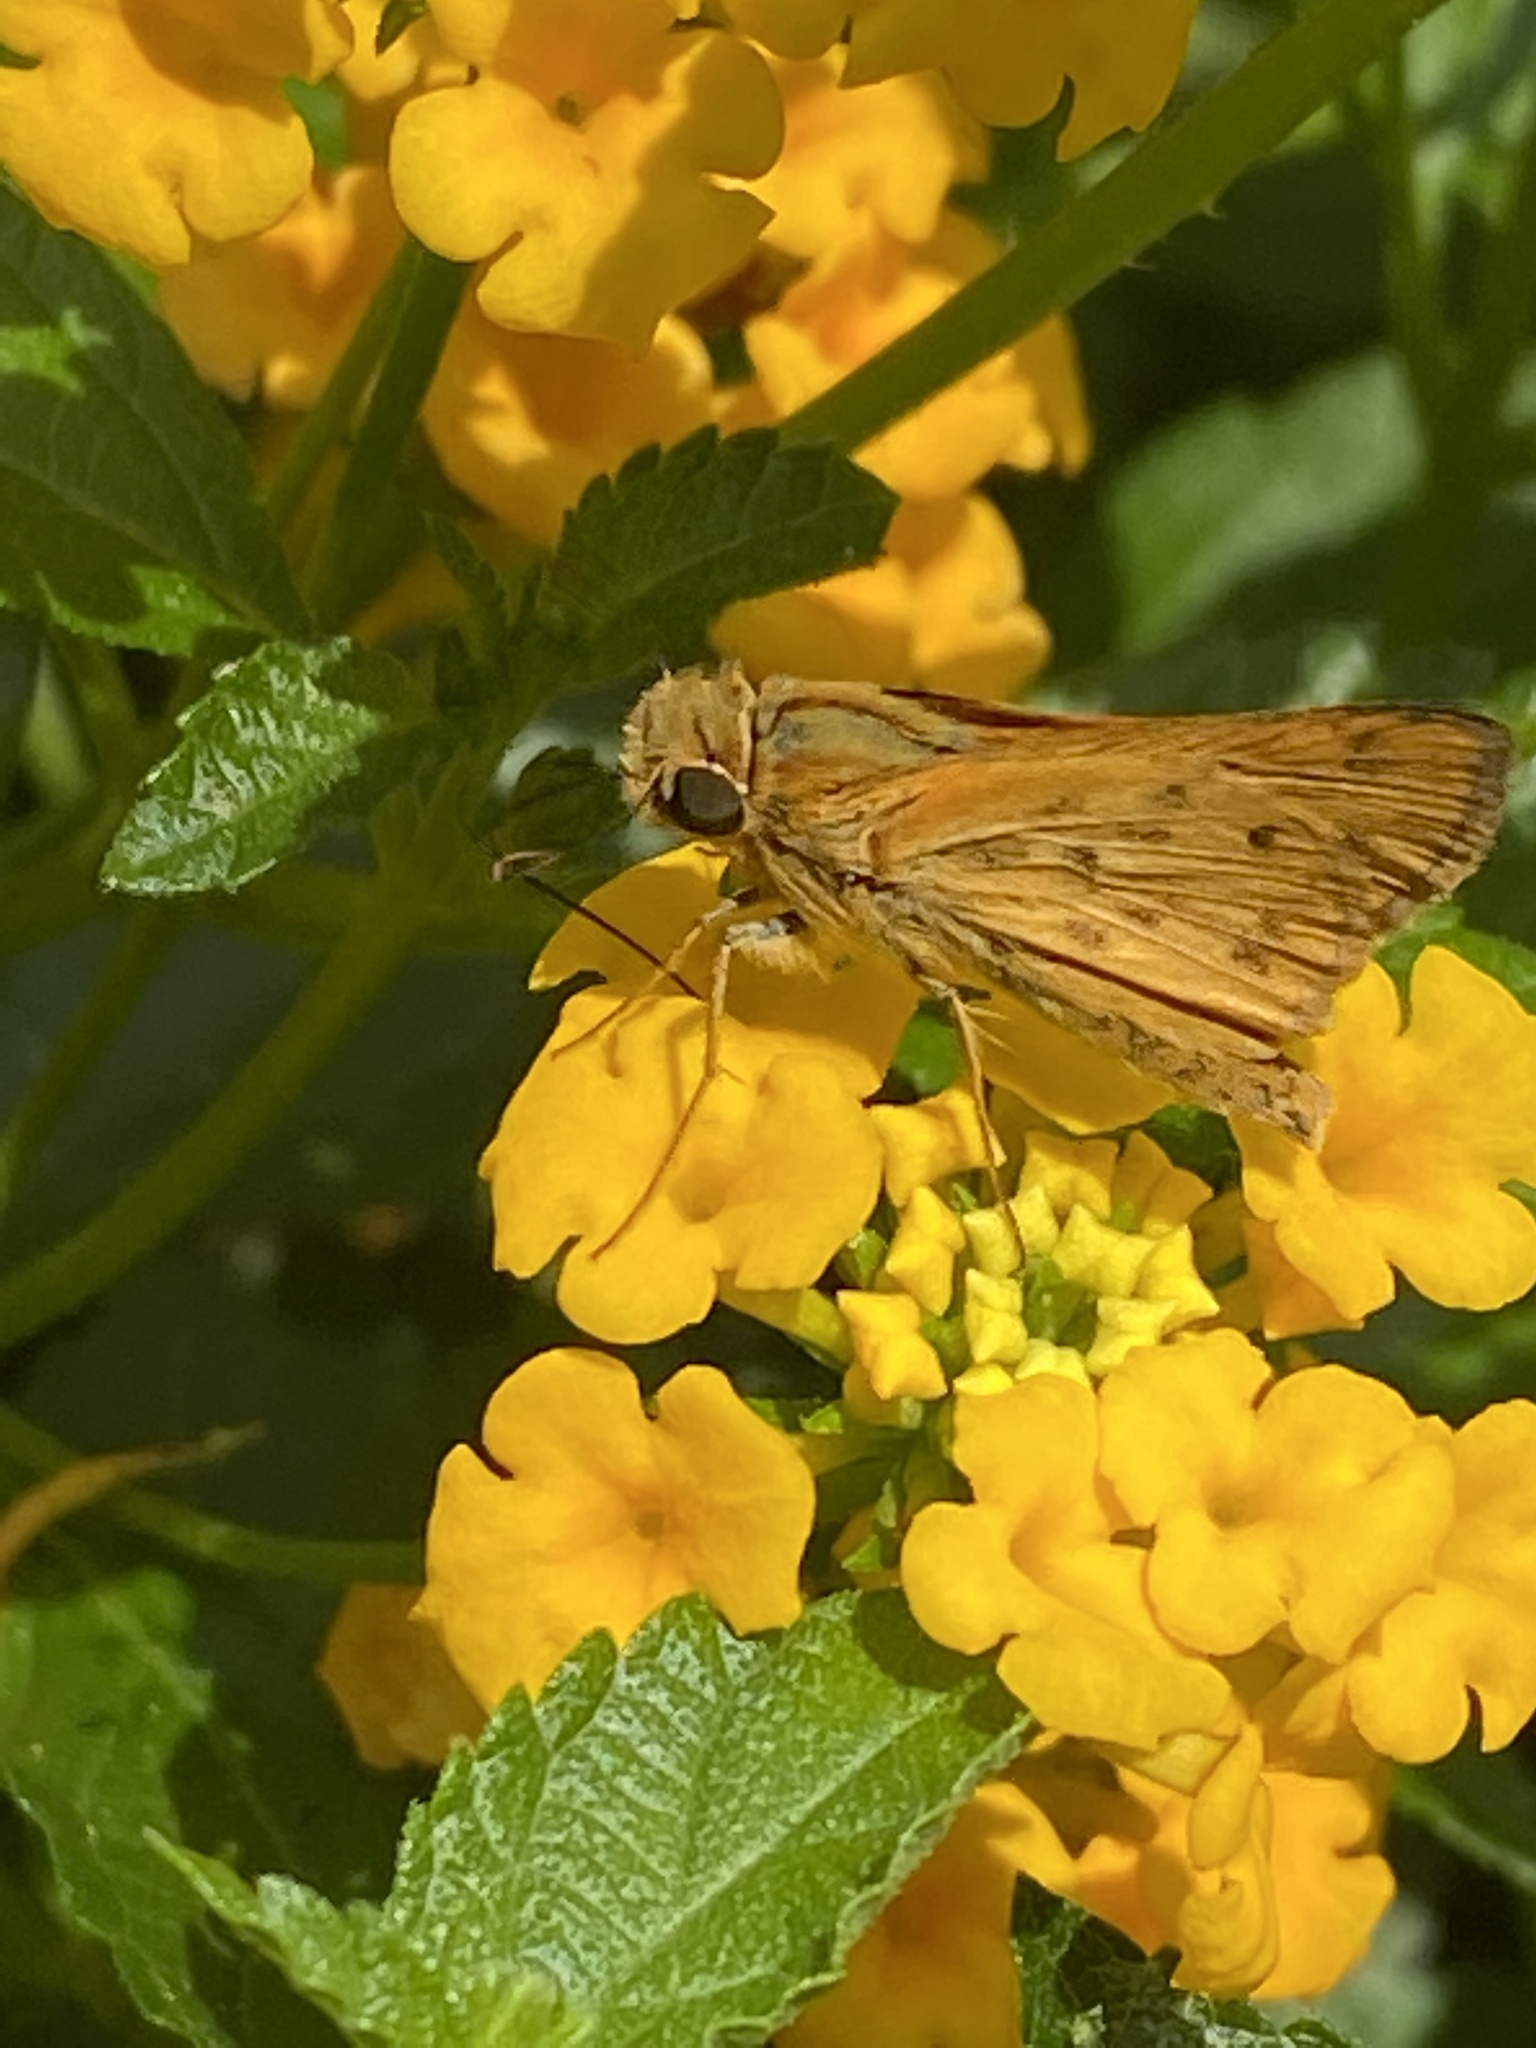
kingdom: Animalia
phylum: Arthropoda
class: Insecta
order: Lepidoptera
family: Hesperiidae
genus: Hylephila
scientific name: Hylephila phyleus
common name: Fiery skipper
